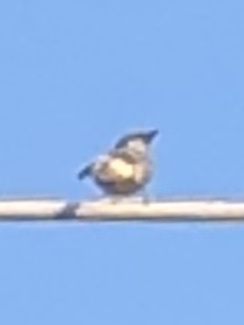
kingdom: Animalia
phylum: Chordata
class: Aves
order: Passeriformes
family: Passeridae
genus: Passer
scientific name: Passer domesticus
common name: House sparrow
